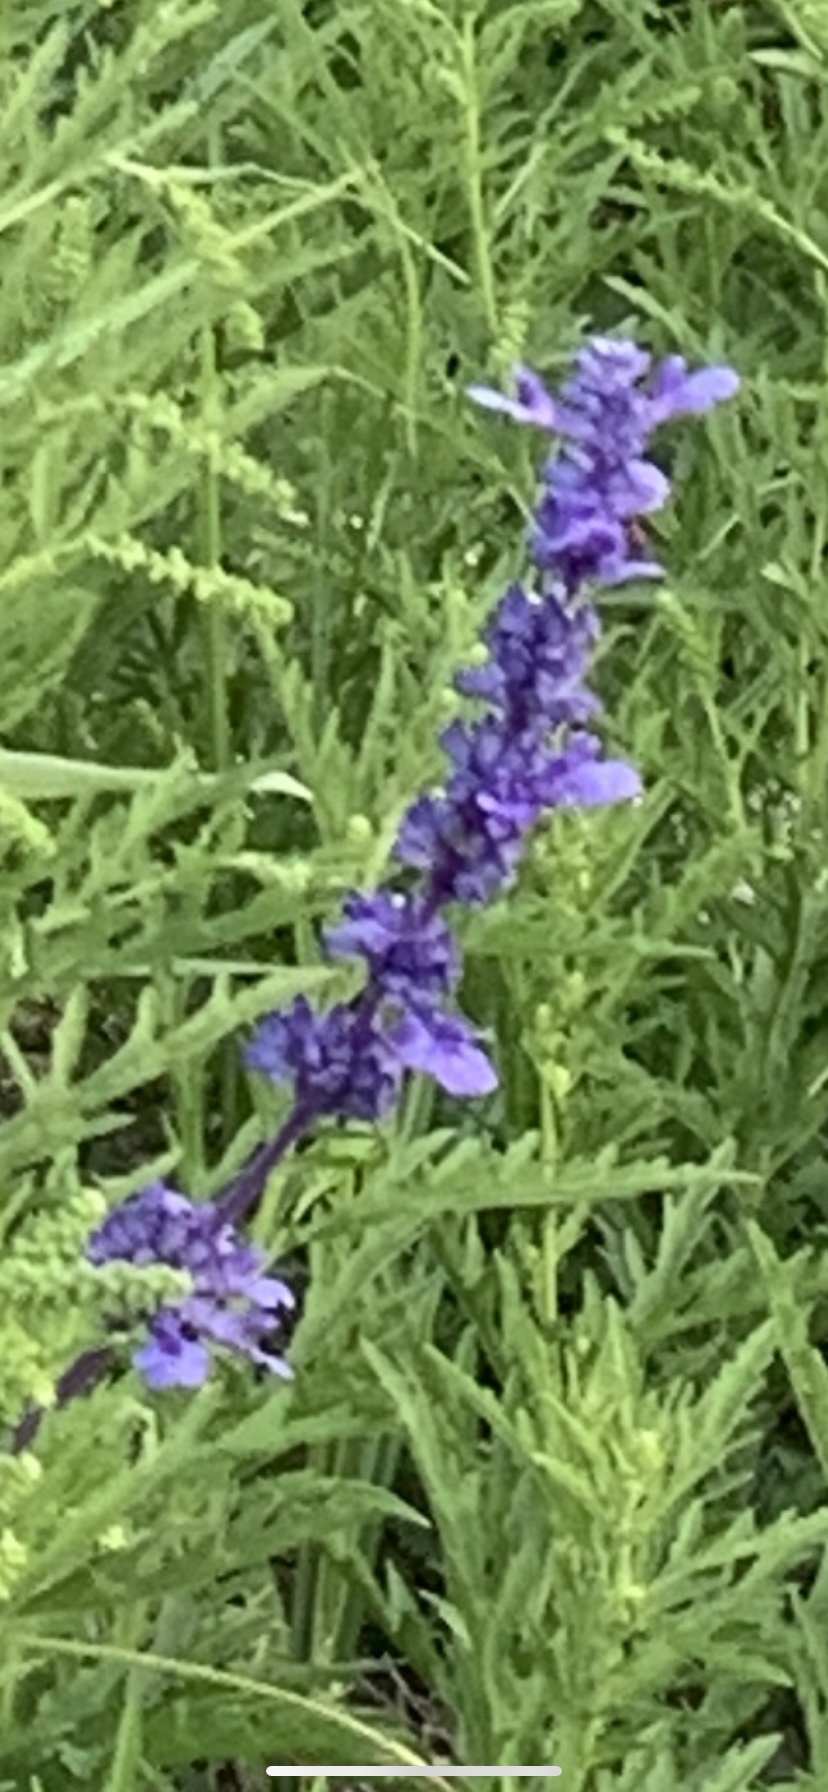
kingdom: Plantae
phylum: Tracheophyta
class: Magnoliopsida
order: Lamiales
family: Lamiaceae
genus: Salvia
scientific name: Salvia farinacea
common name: Mealy sage
